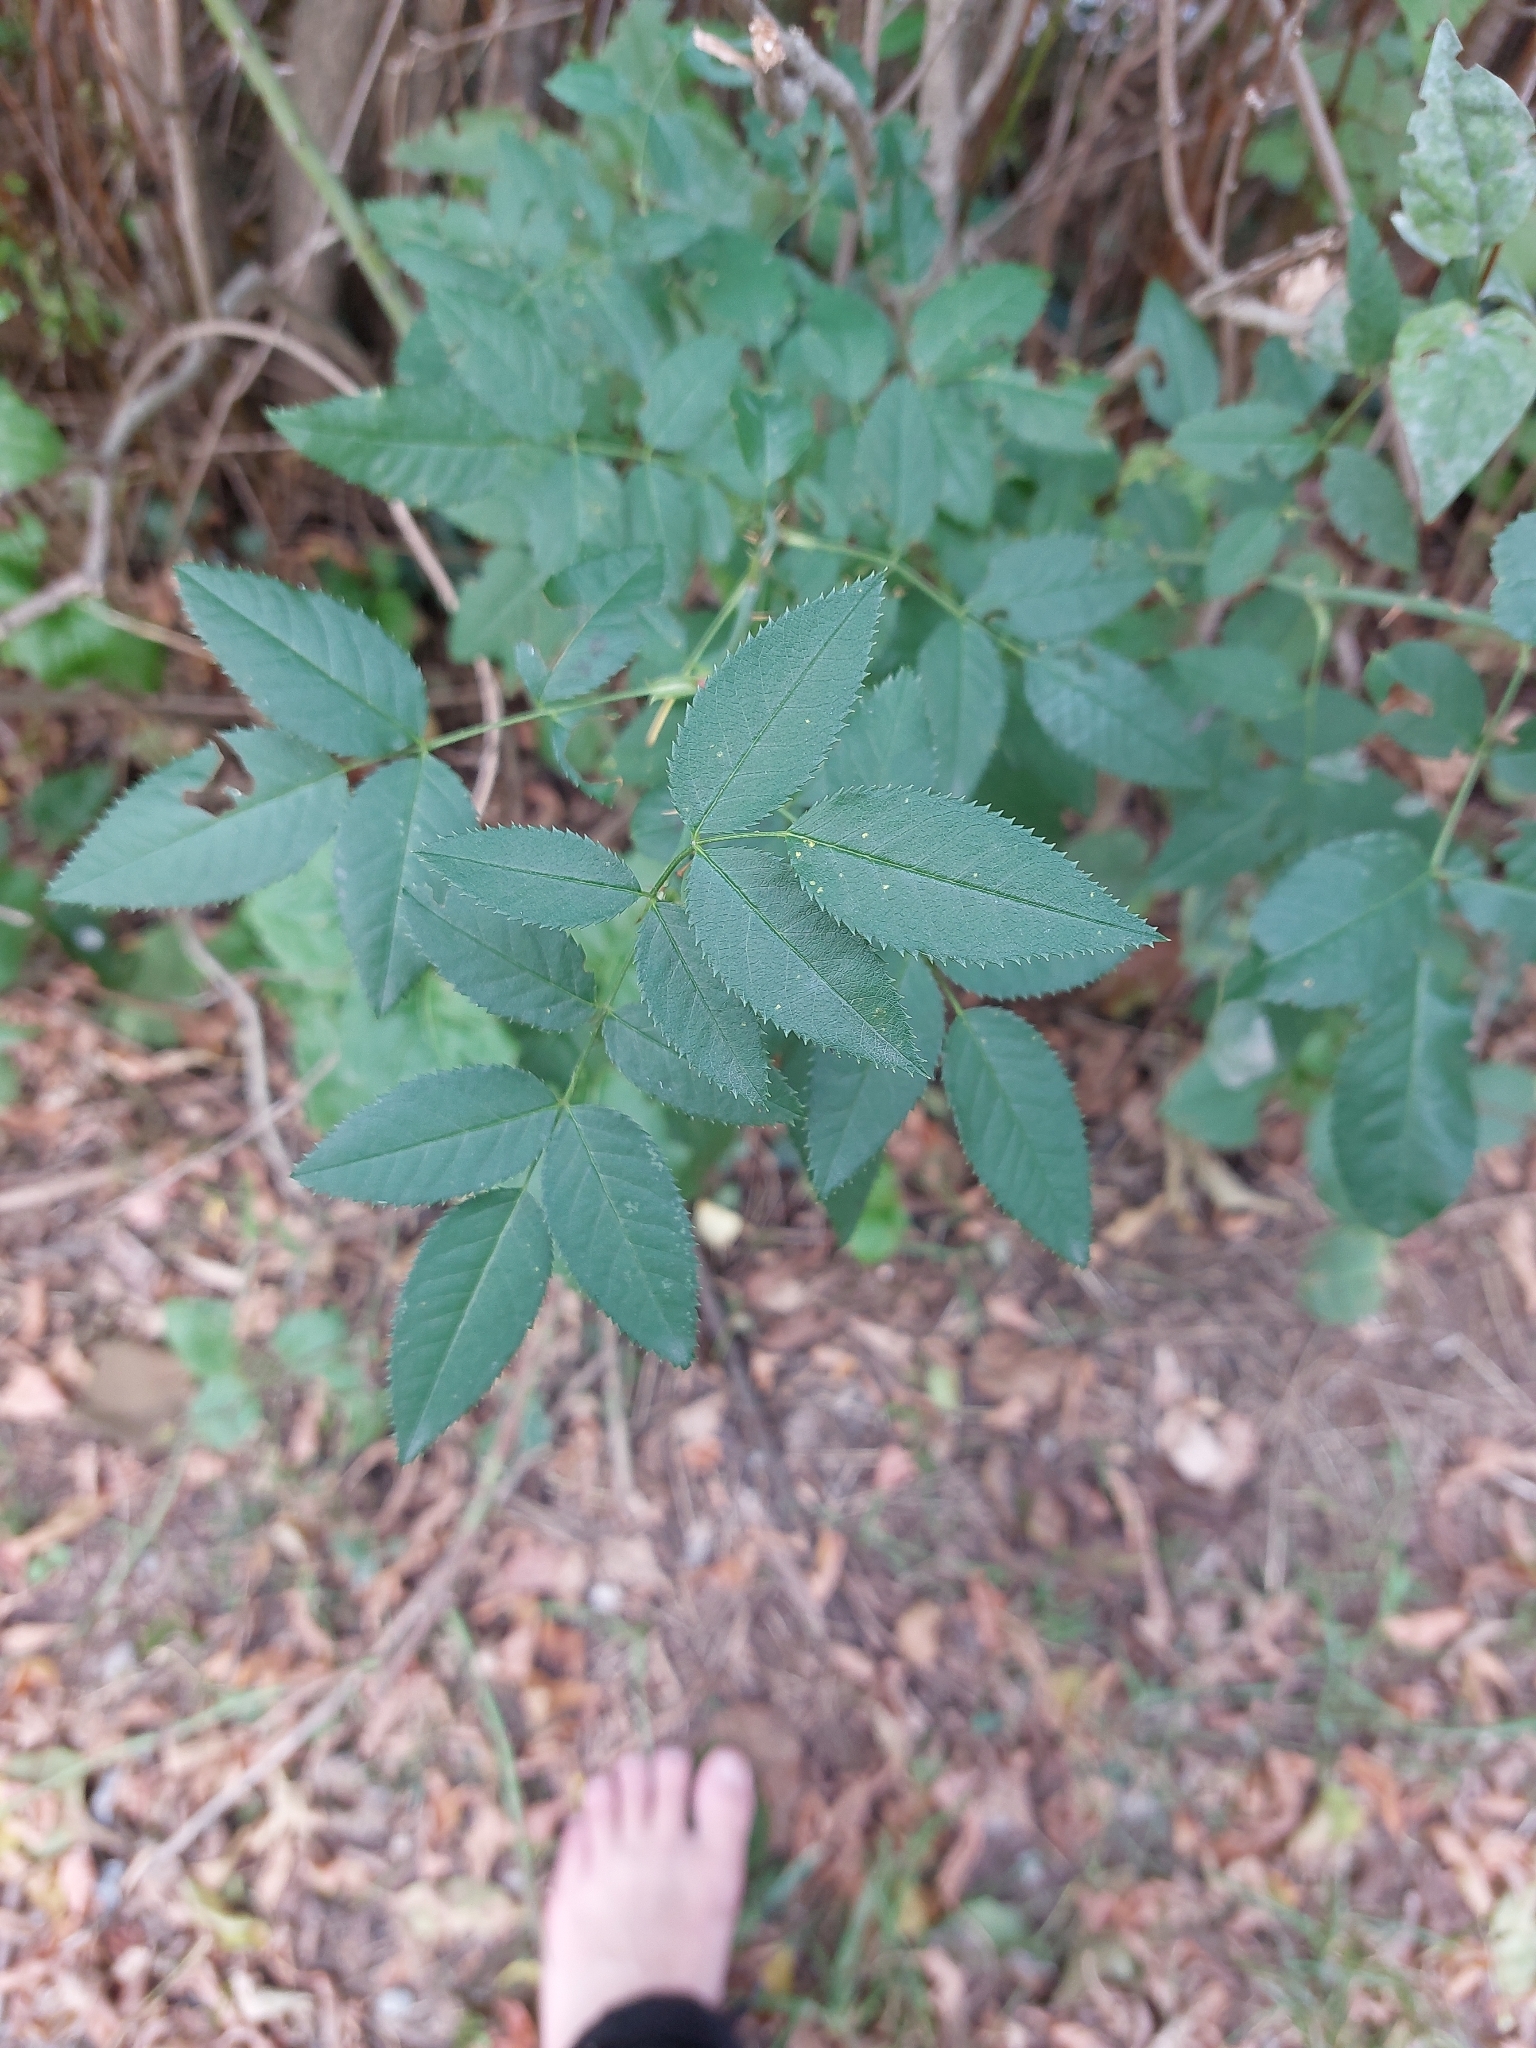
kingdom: Plantae
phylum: Tracheophyta
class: Magnoliopsida
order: Rosales
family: Rosaceae
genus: Rosa
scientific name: Rosa
